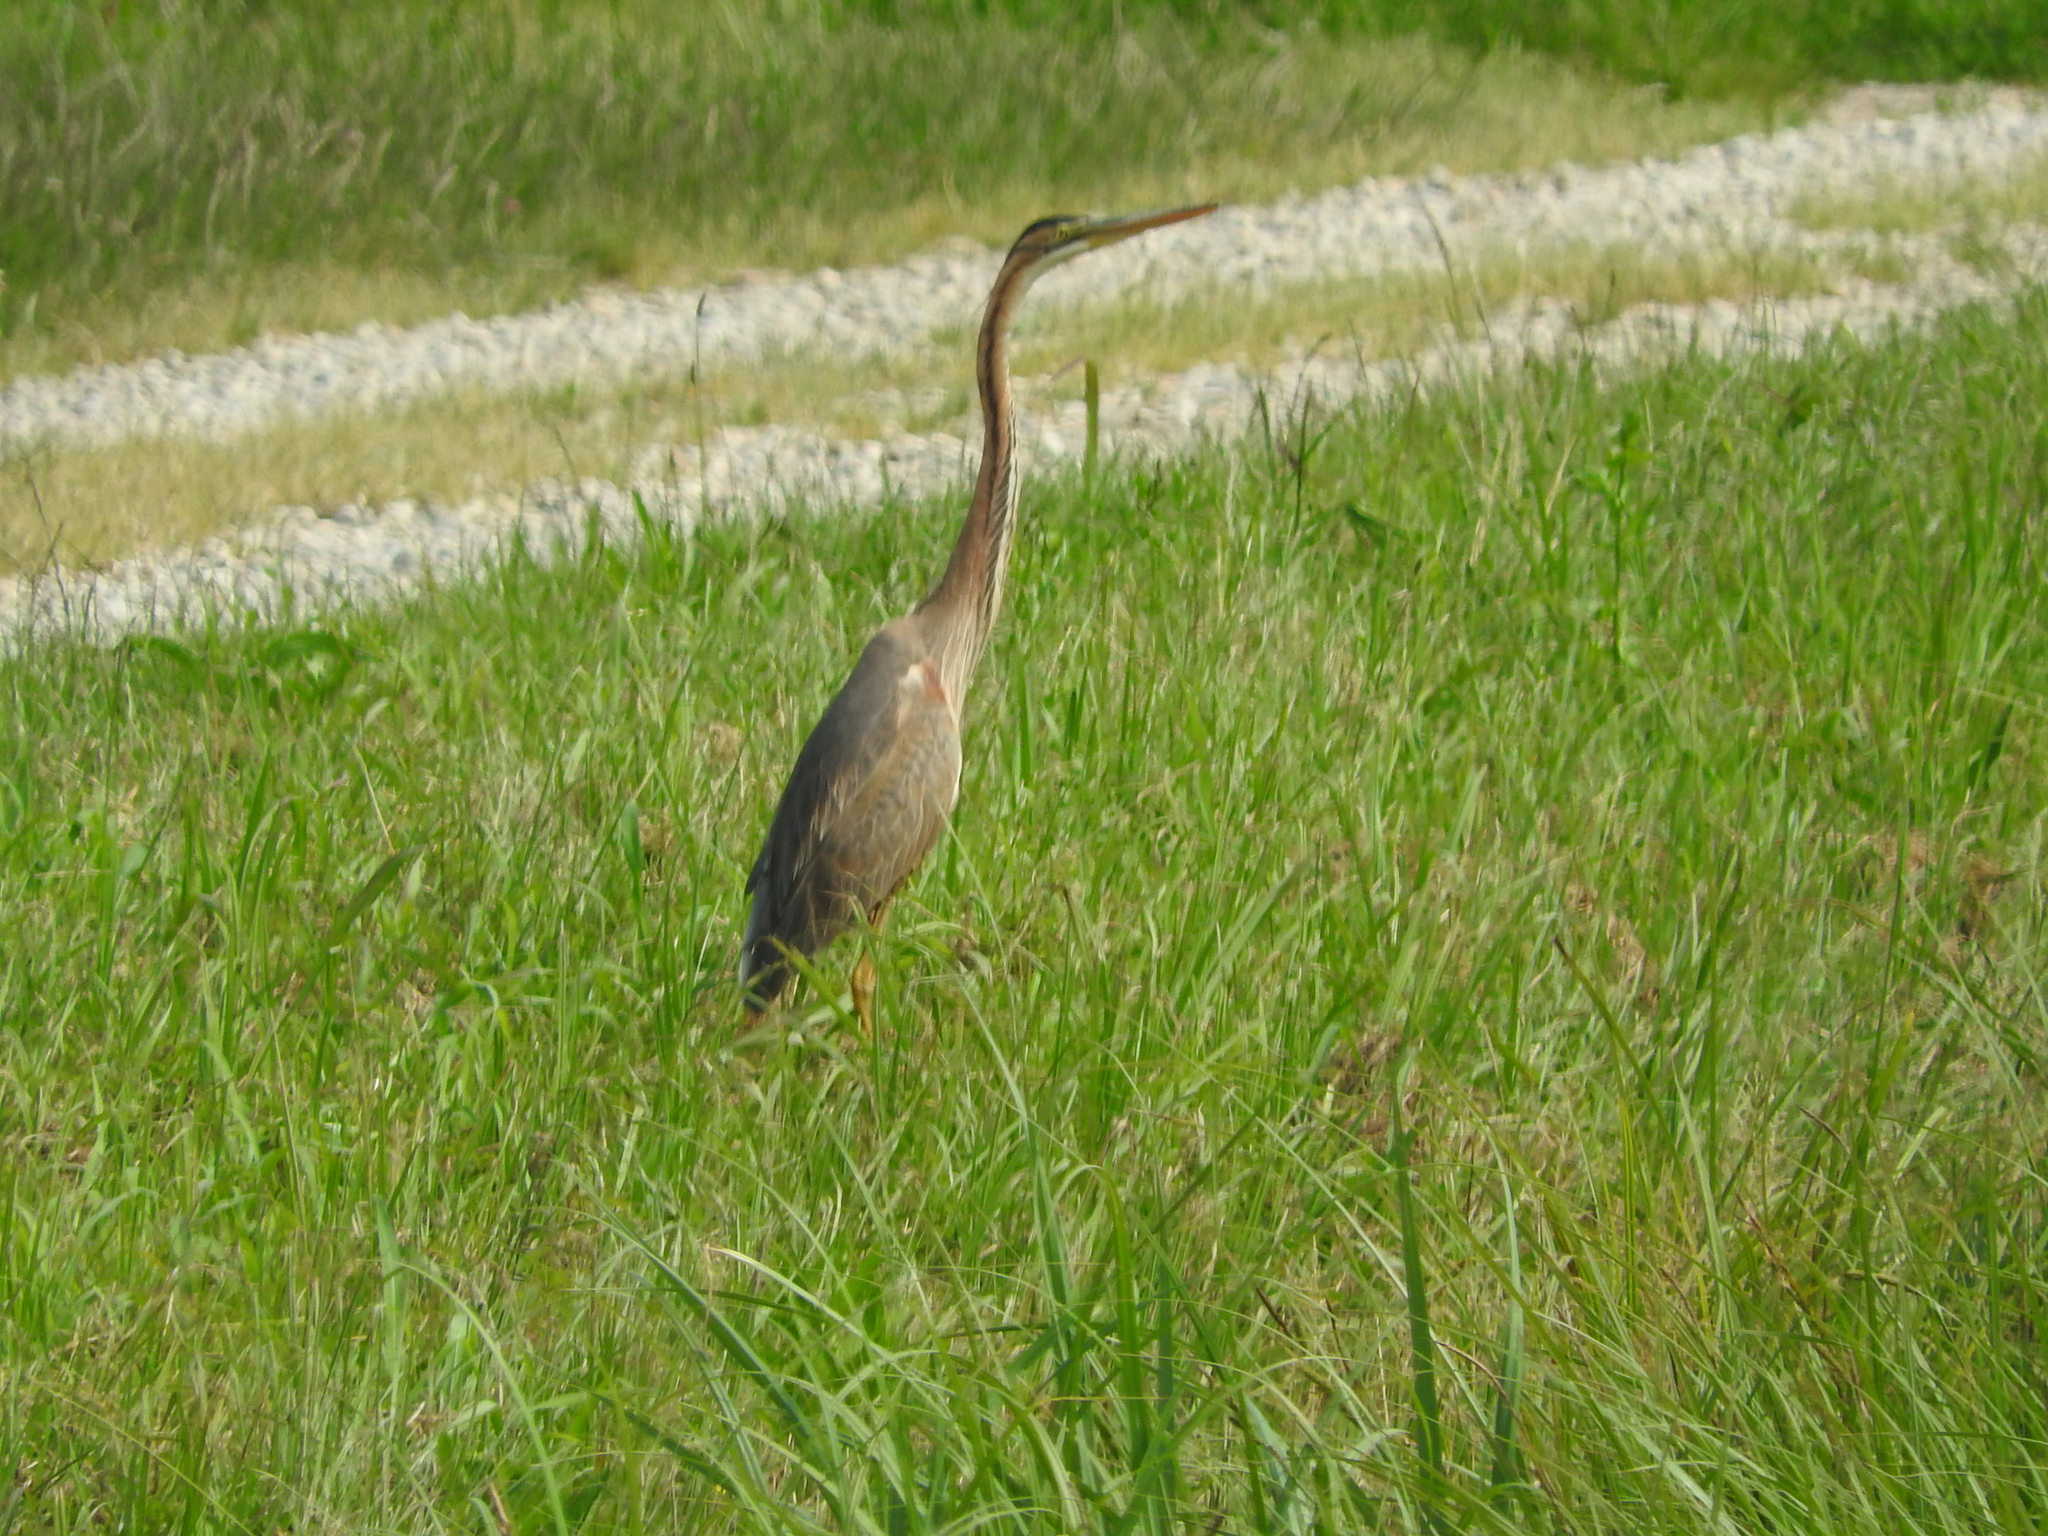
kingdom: Animalia
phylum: Chordata
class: Aves
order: Pelecaniformes
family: Ardeidae
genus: Ardea
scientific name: Ardea purpurea
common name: Purple heron
